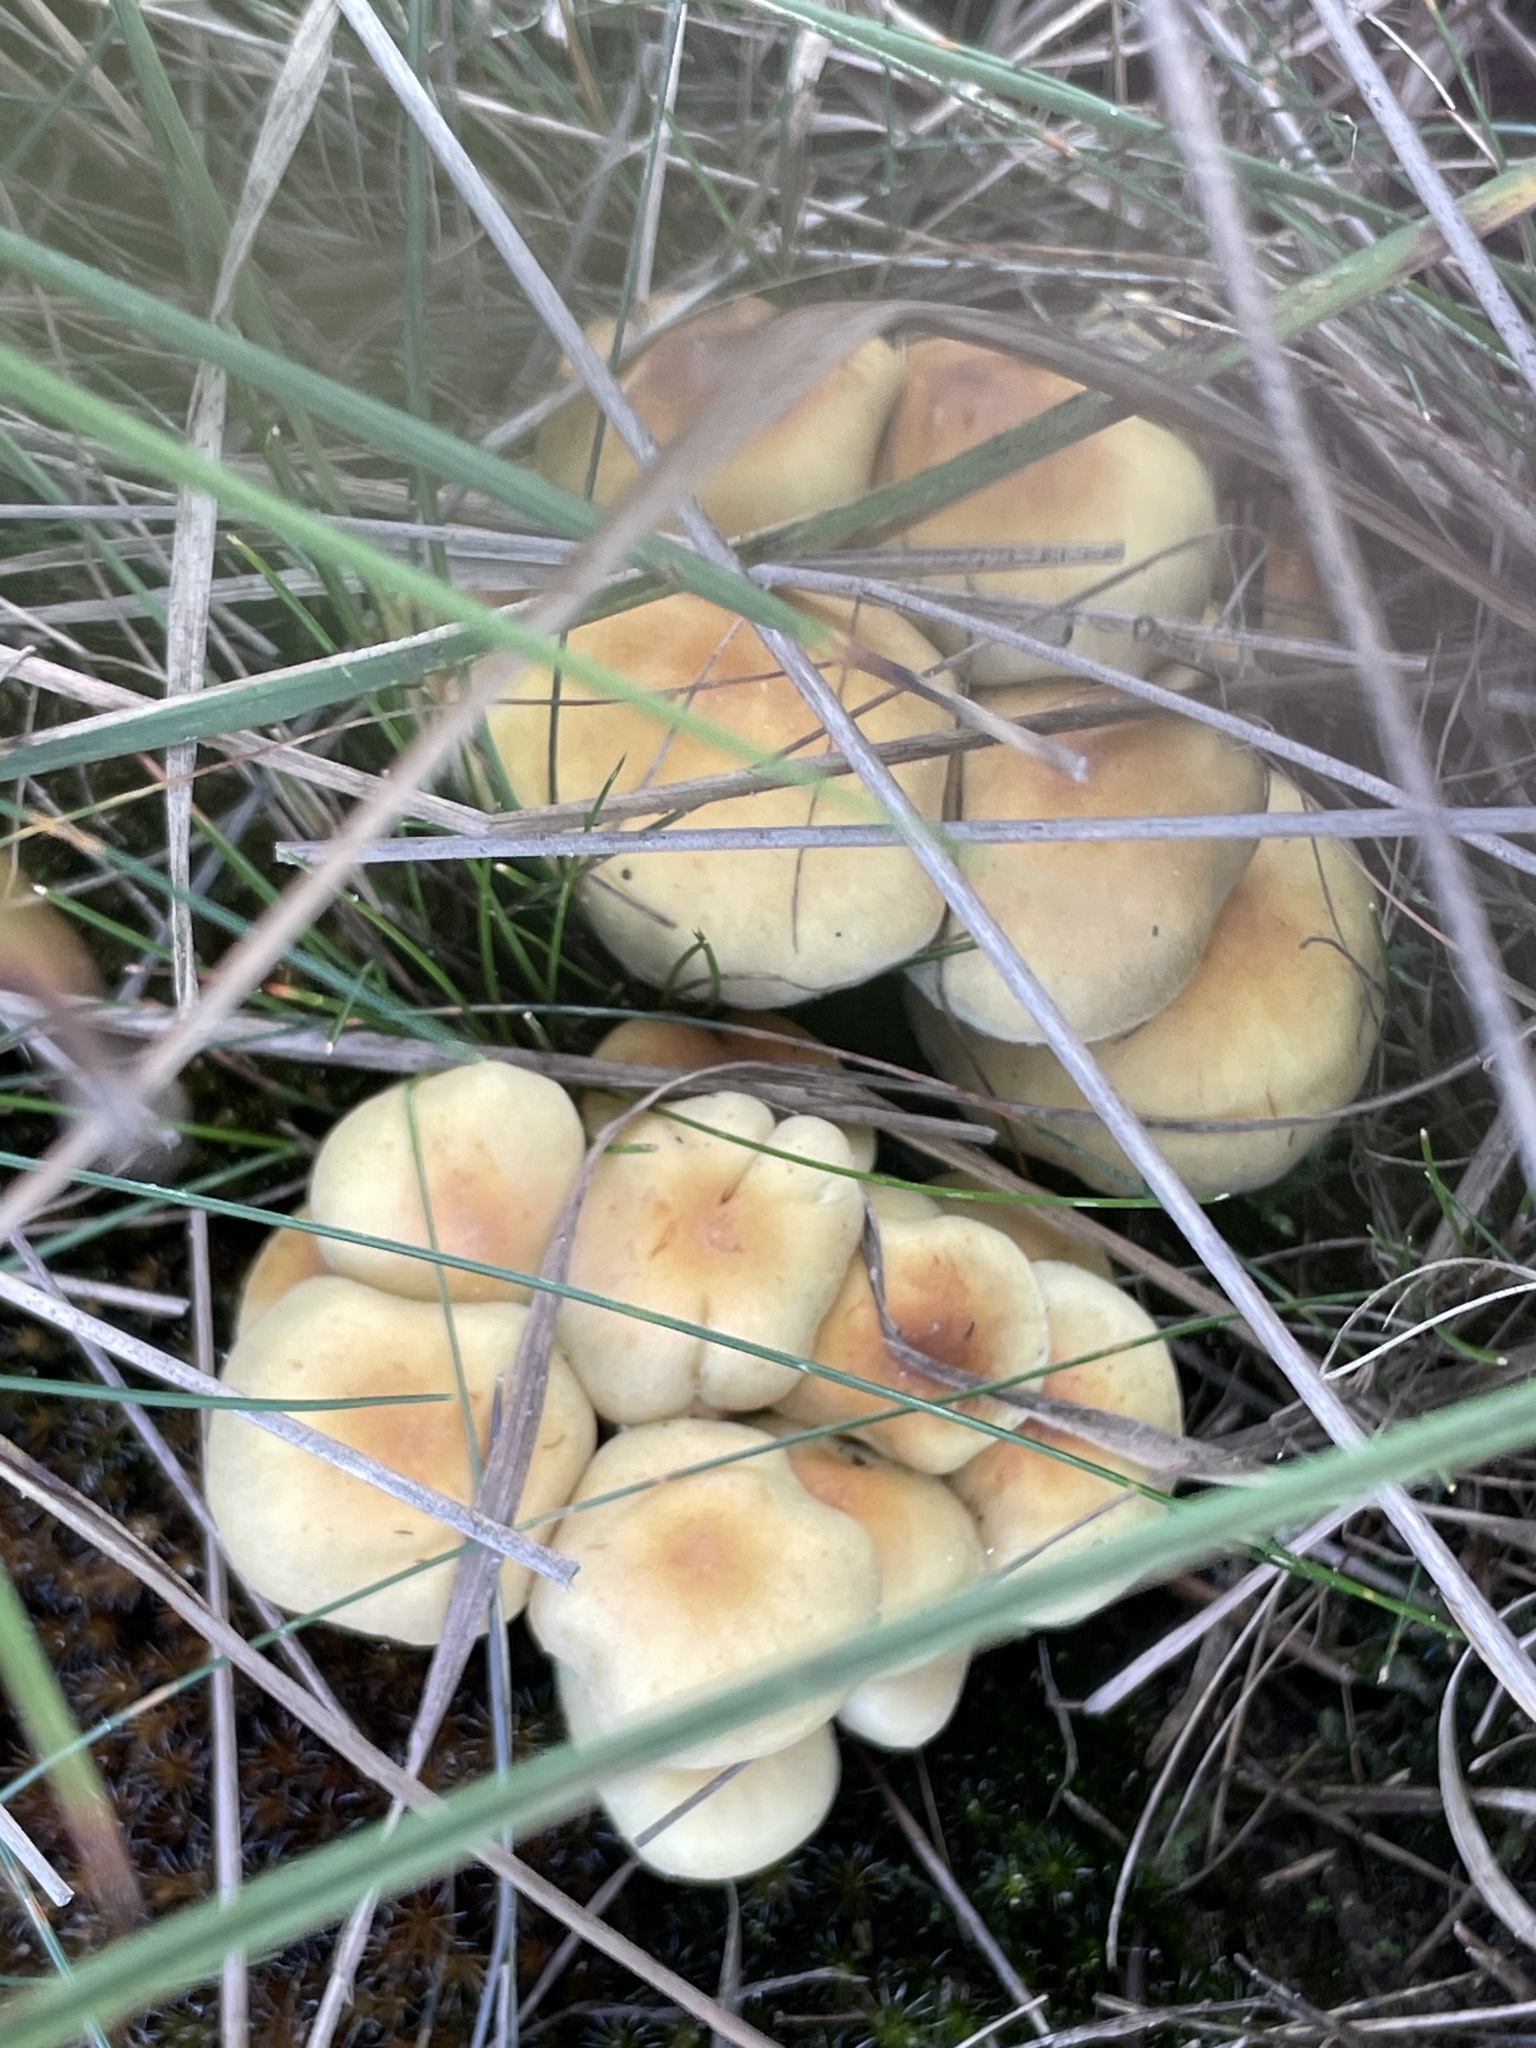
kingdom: Fungi
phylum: Basidiomycota
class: Agaricomycetes
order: Agaricales
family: Strophariaceae
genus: Hypholoma
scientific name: Hypholoma fasciculare
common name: Sulphur tuft
